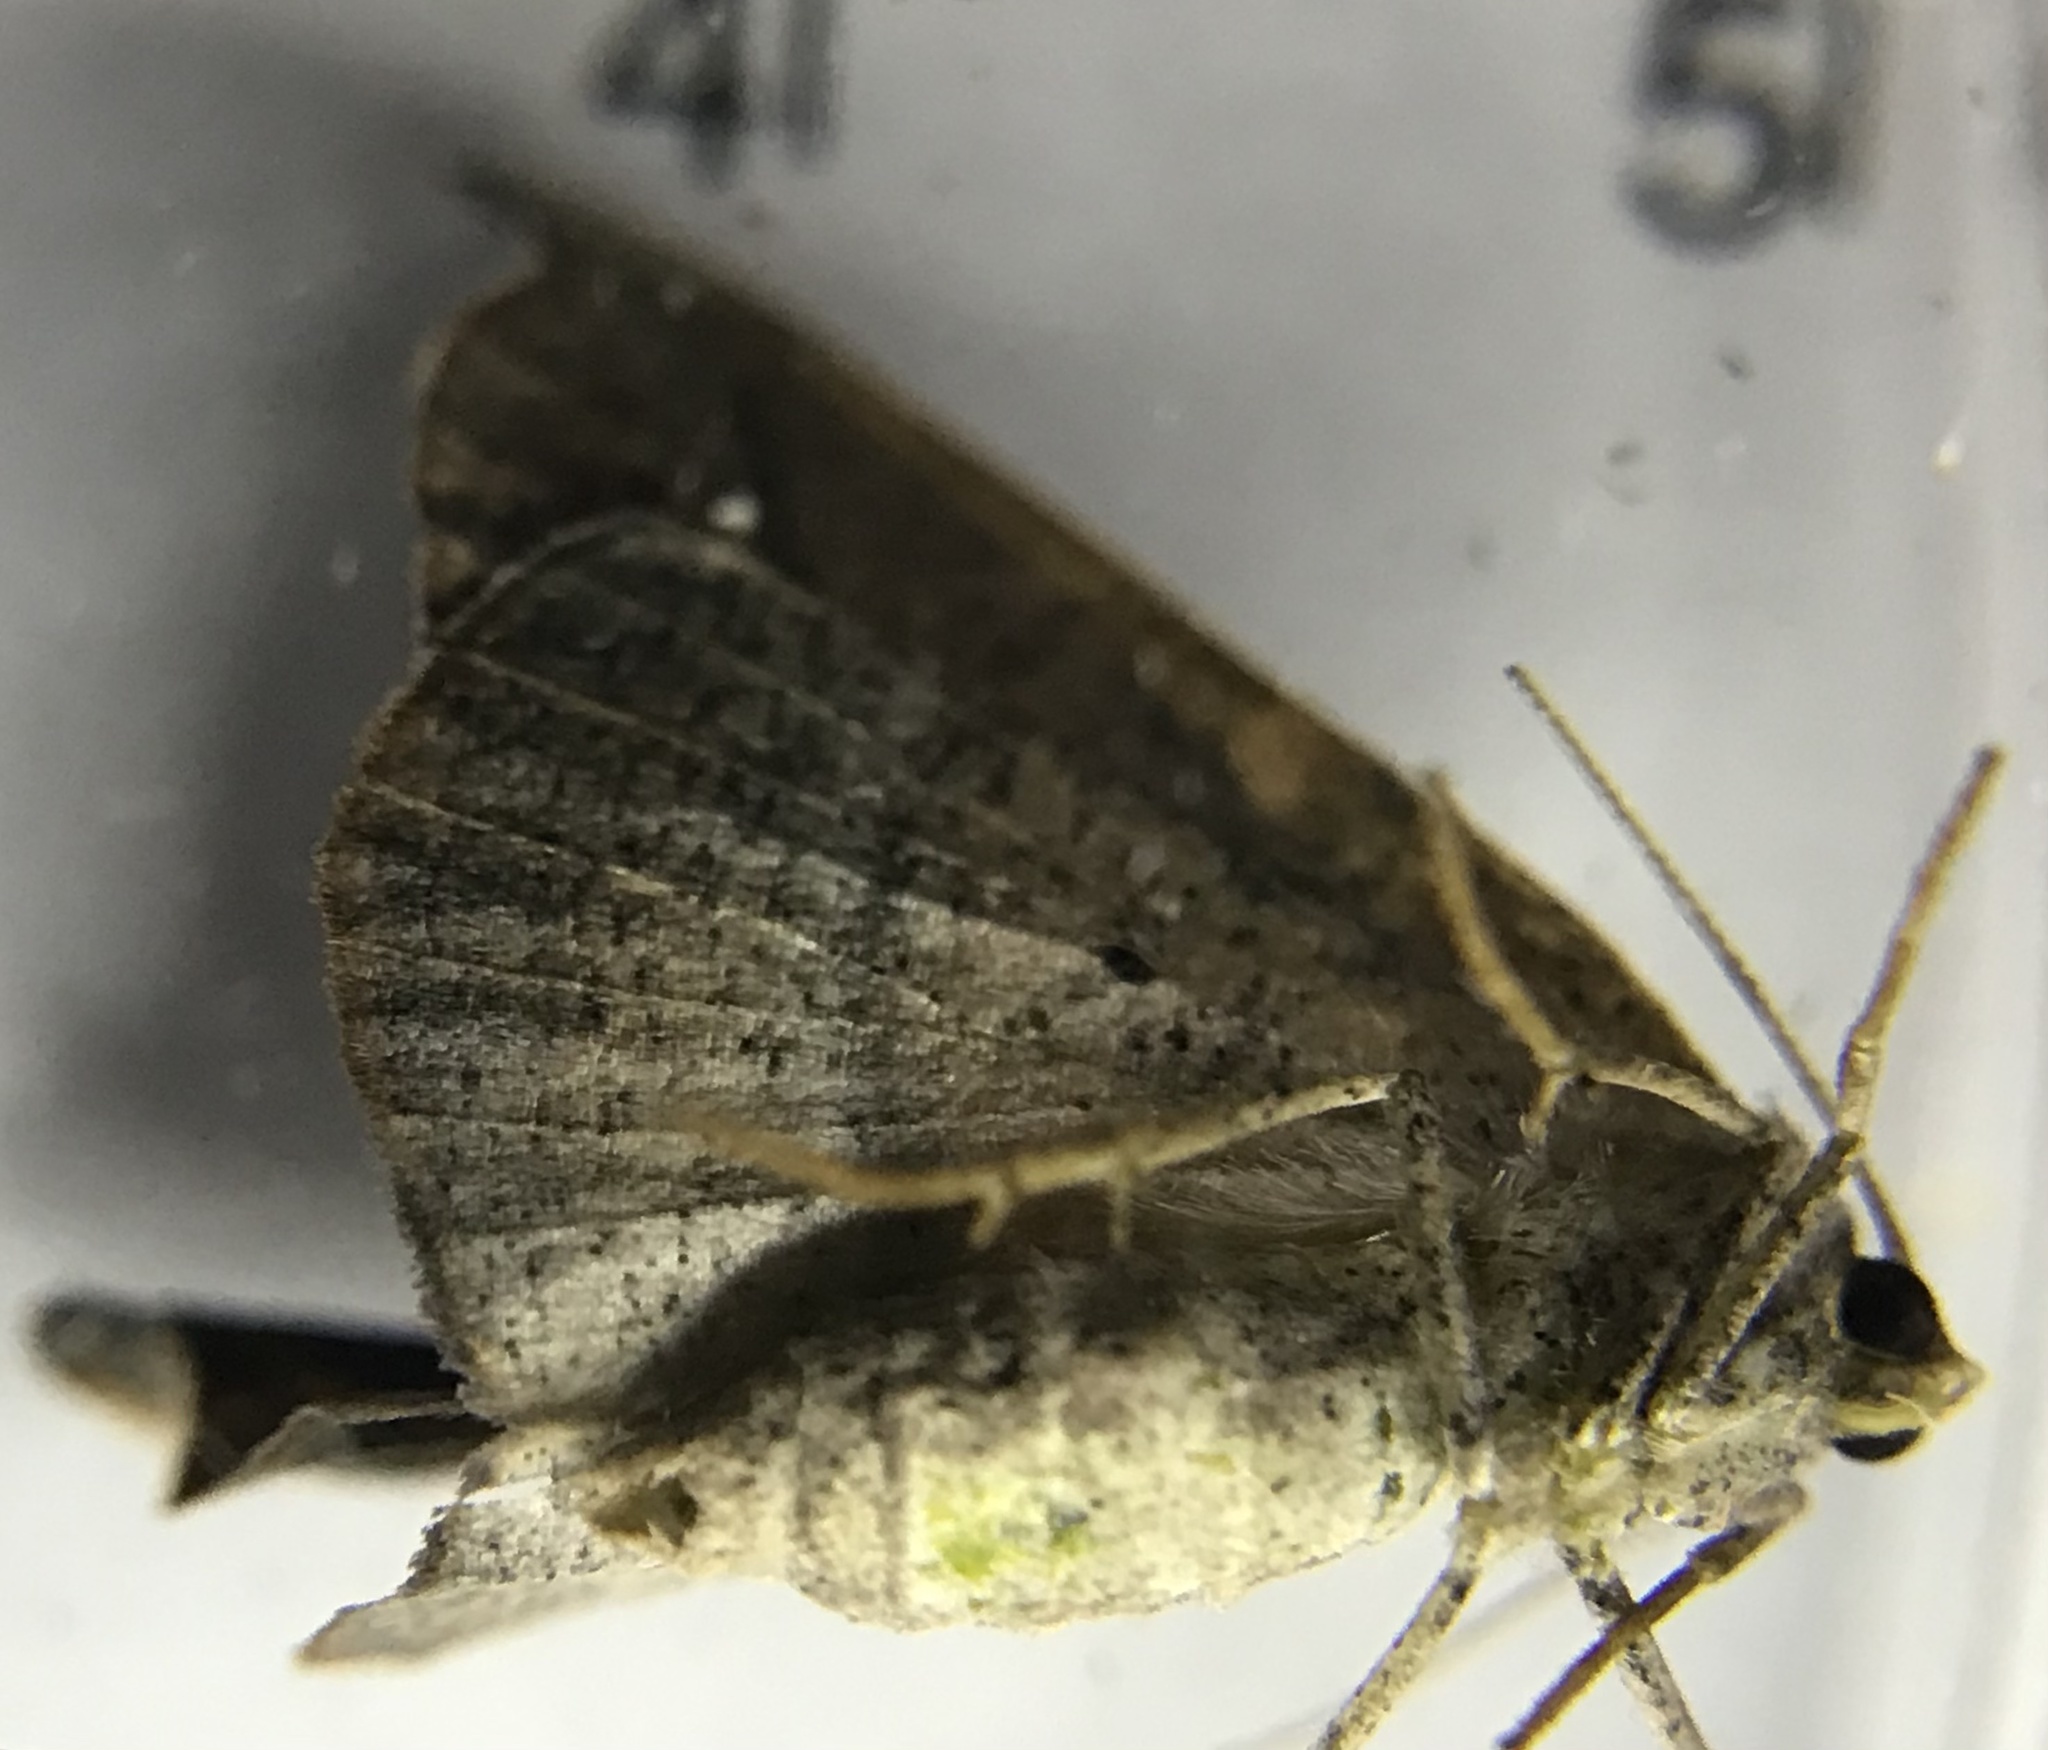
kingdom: Animalia
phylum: Arthropoda
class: Insecta
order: Lepidoptera
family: Geometridae
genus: Patalene
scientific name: Patalene olyzonaria
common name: Juniper geometer moth
